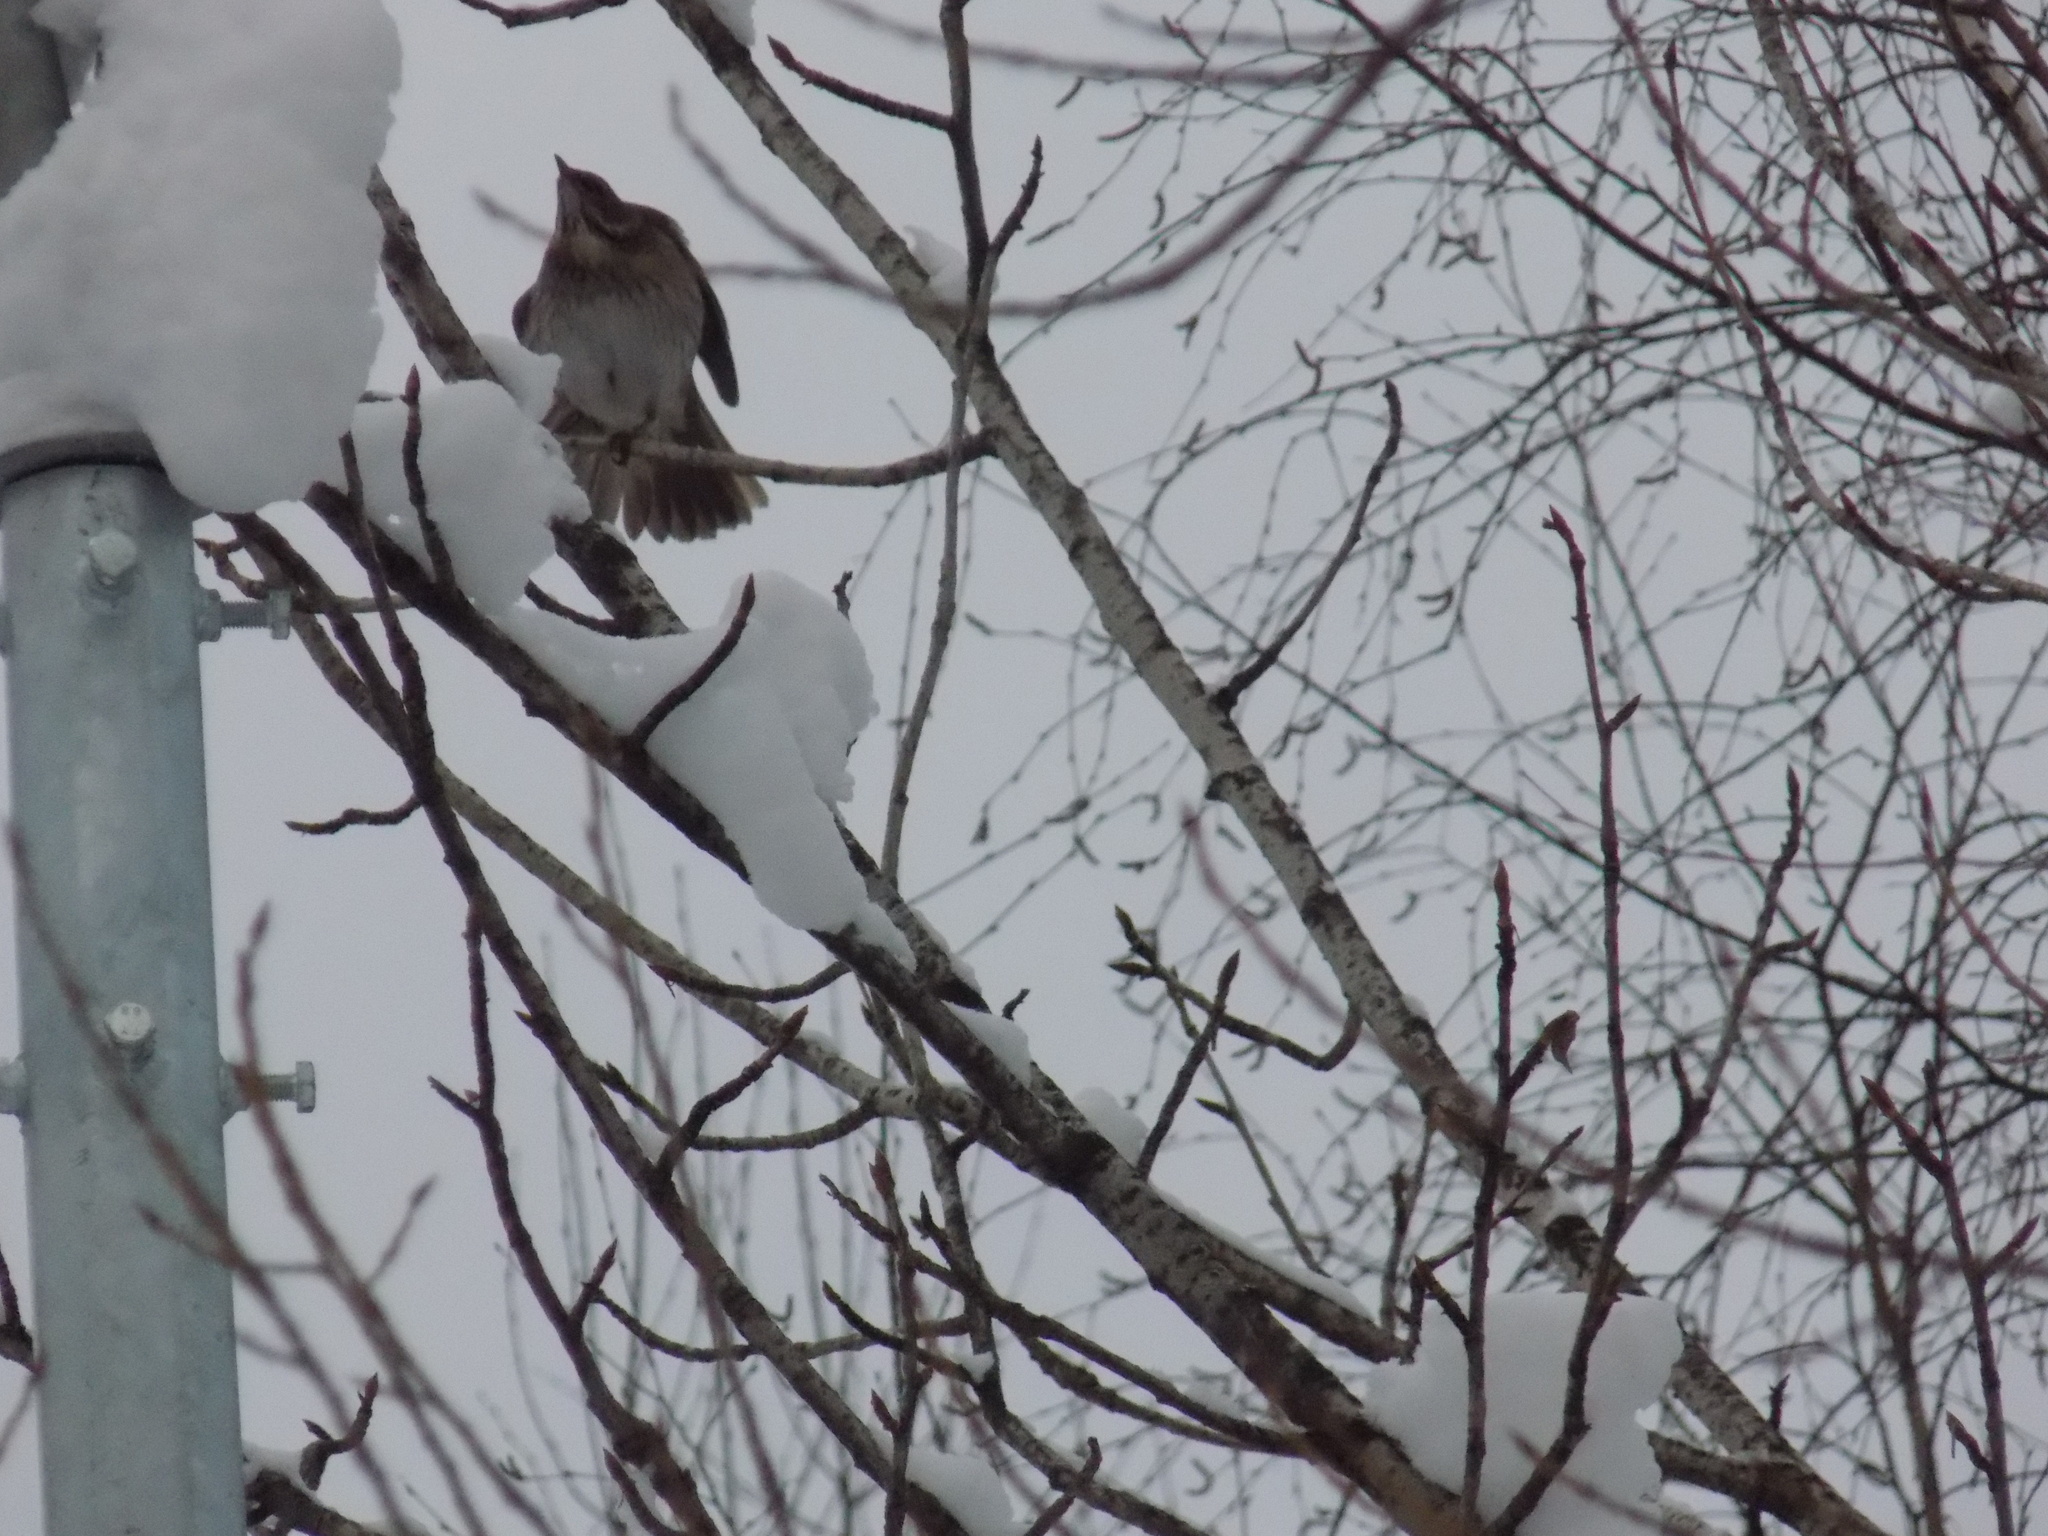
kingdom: Animalia
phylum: Chordata
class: Aves
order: Passeriformes
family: Turdidae
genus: Turdus
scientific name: Turdus atrogularis
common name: Black-throated thrush
